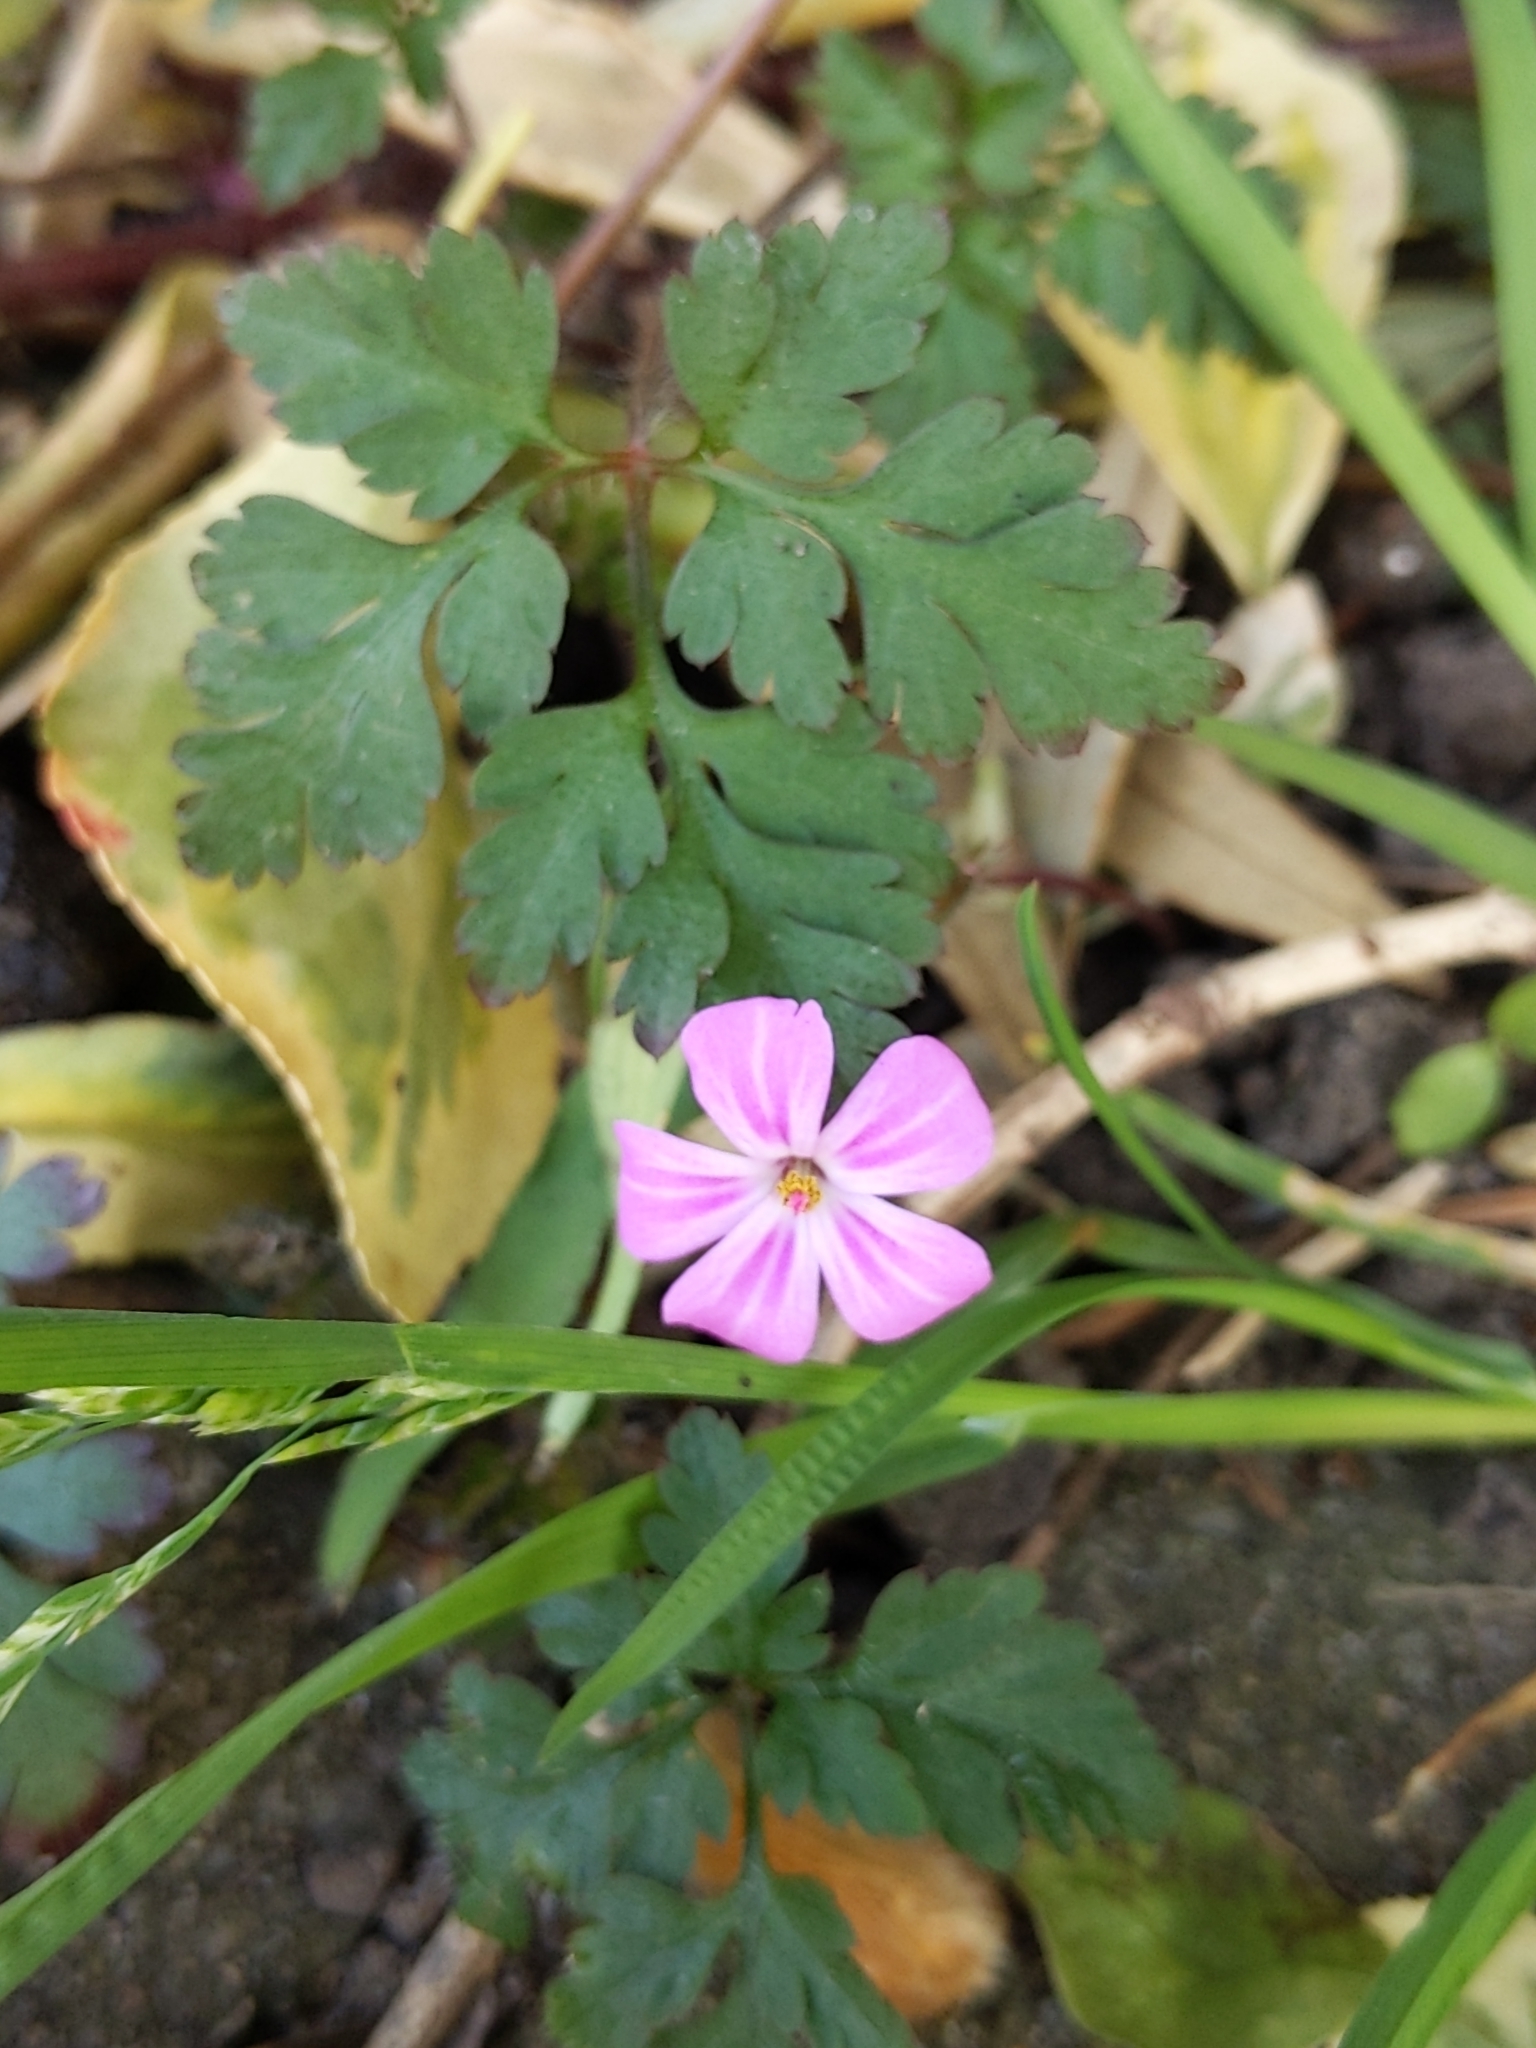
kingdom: Plantae
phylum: Tracheophyta
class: Magnoliopsida
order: Geraniales
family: Geraniaceae
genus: Geranium
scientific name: Geranium robertianum
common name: Herb-robert
